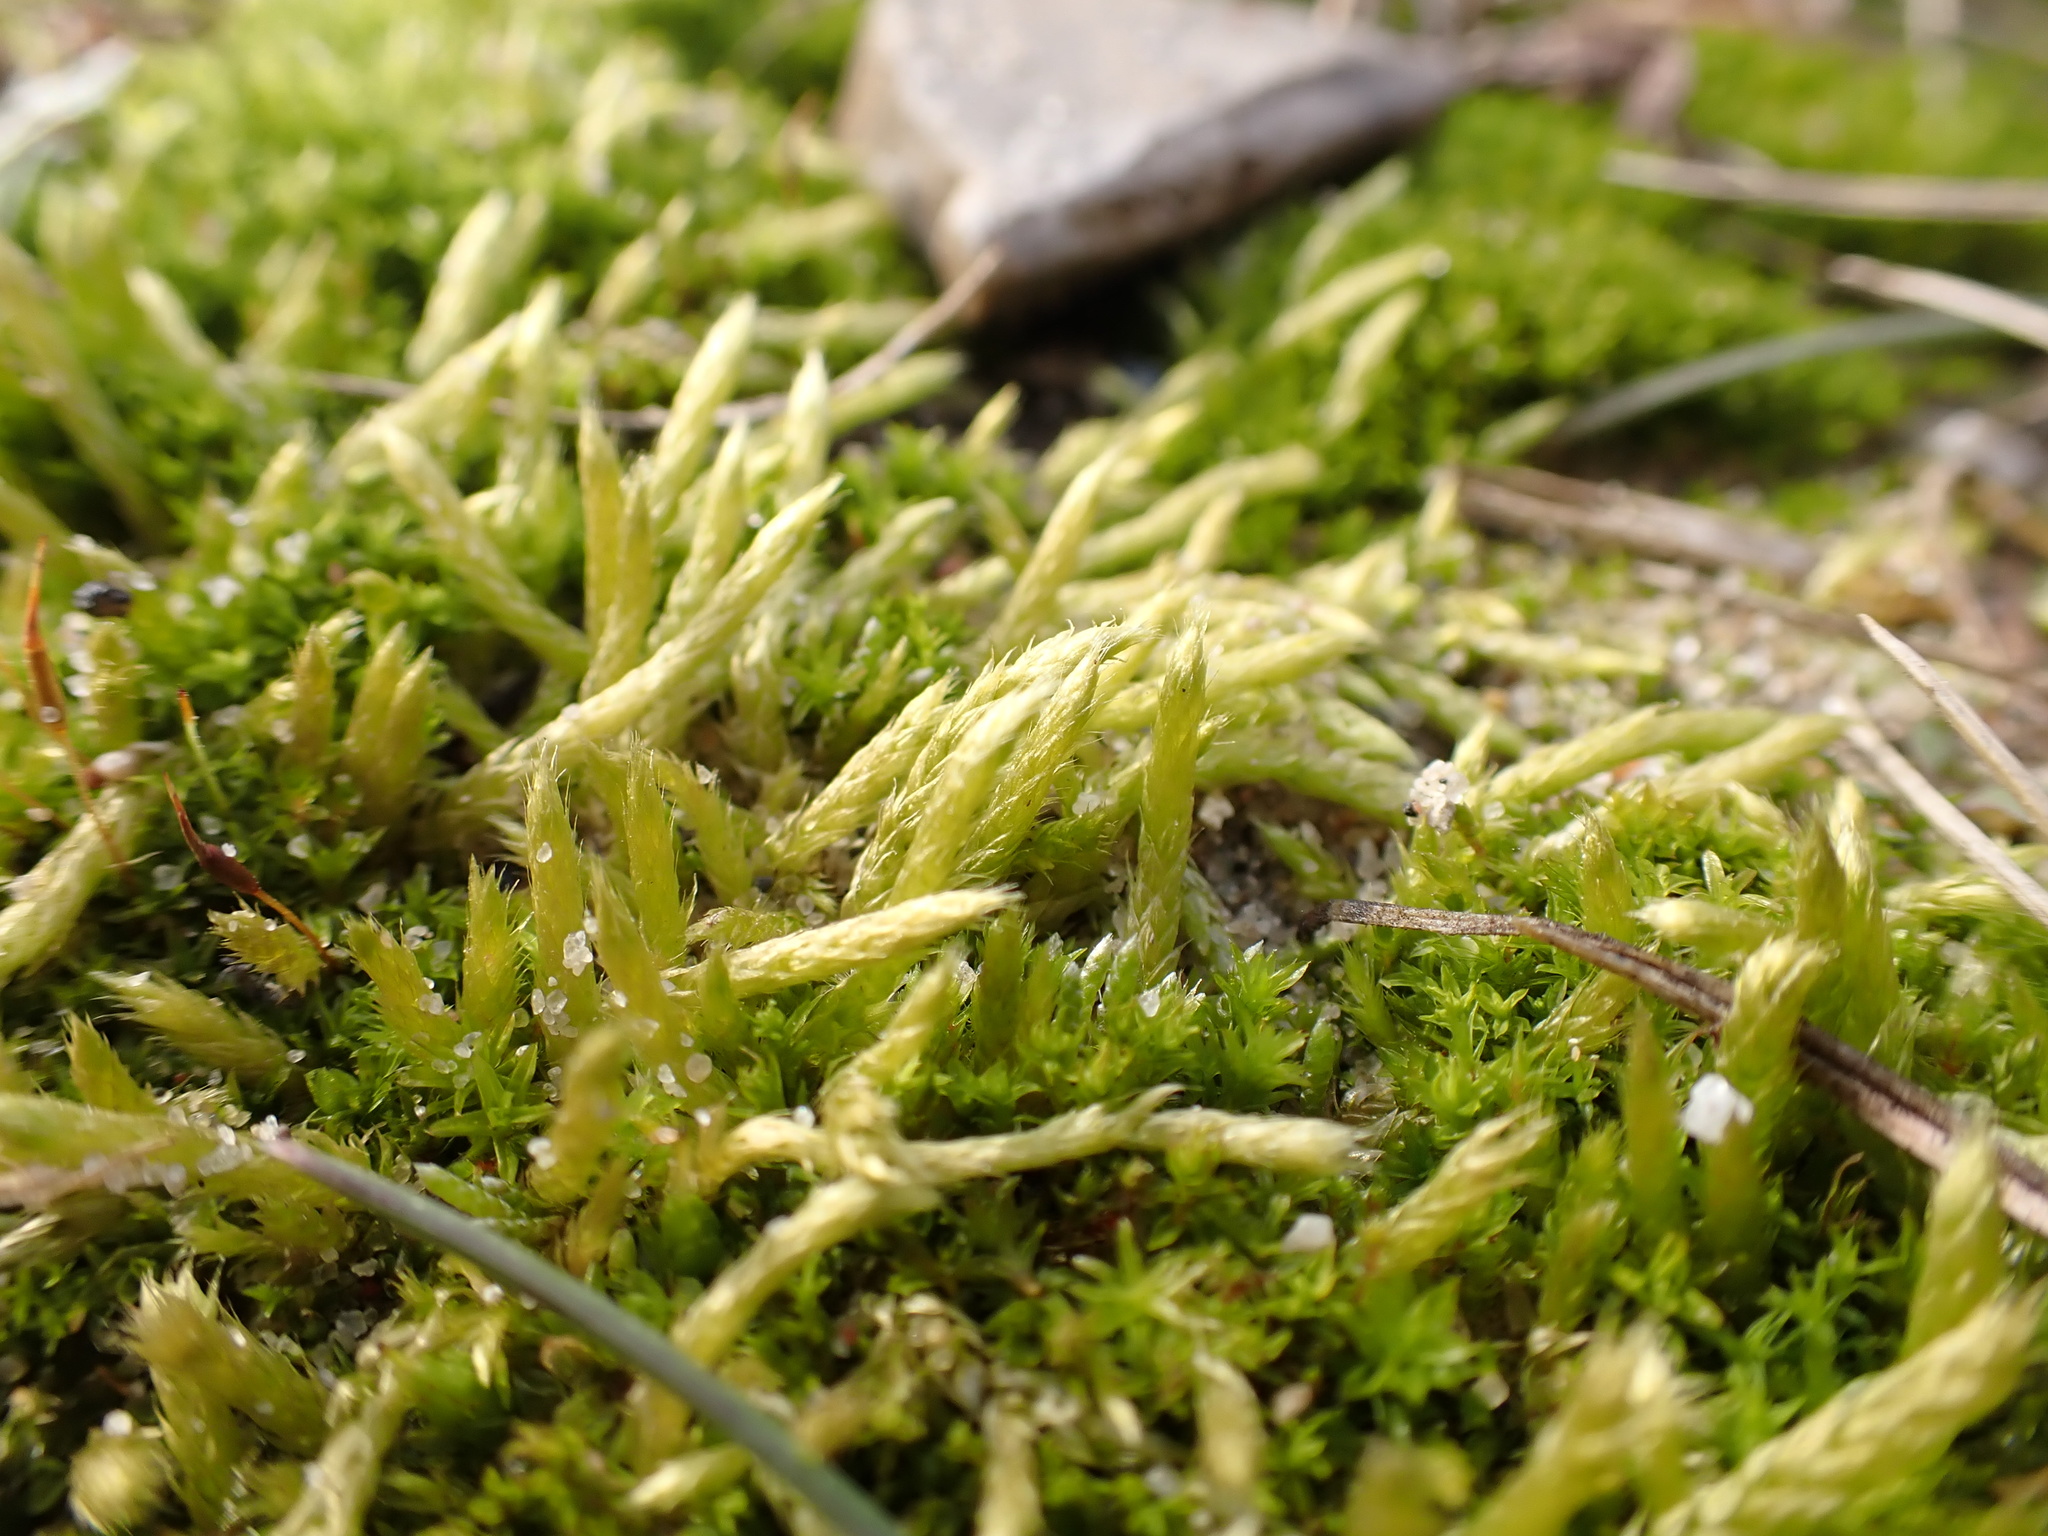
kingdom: Plantae
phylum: Bryophyta
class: Bryopsida
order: Hypnales
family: Brachytheciaceae
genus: Brachythecium
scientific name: Brachythecium albicans
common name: Whitish ragged moss
